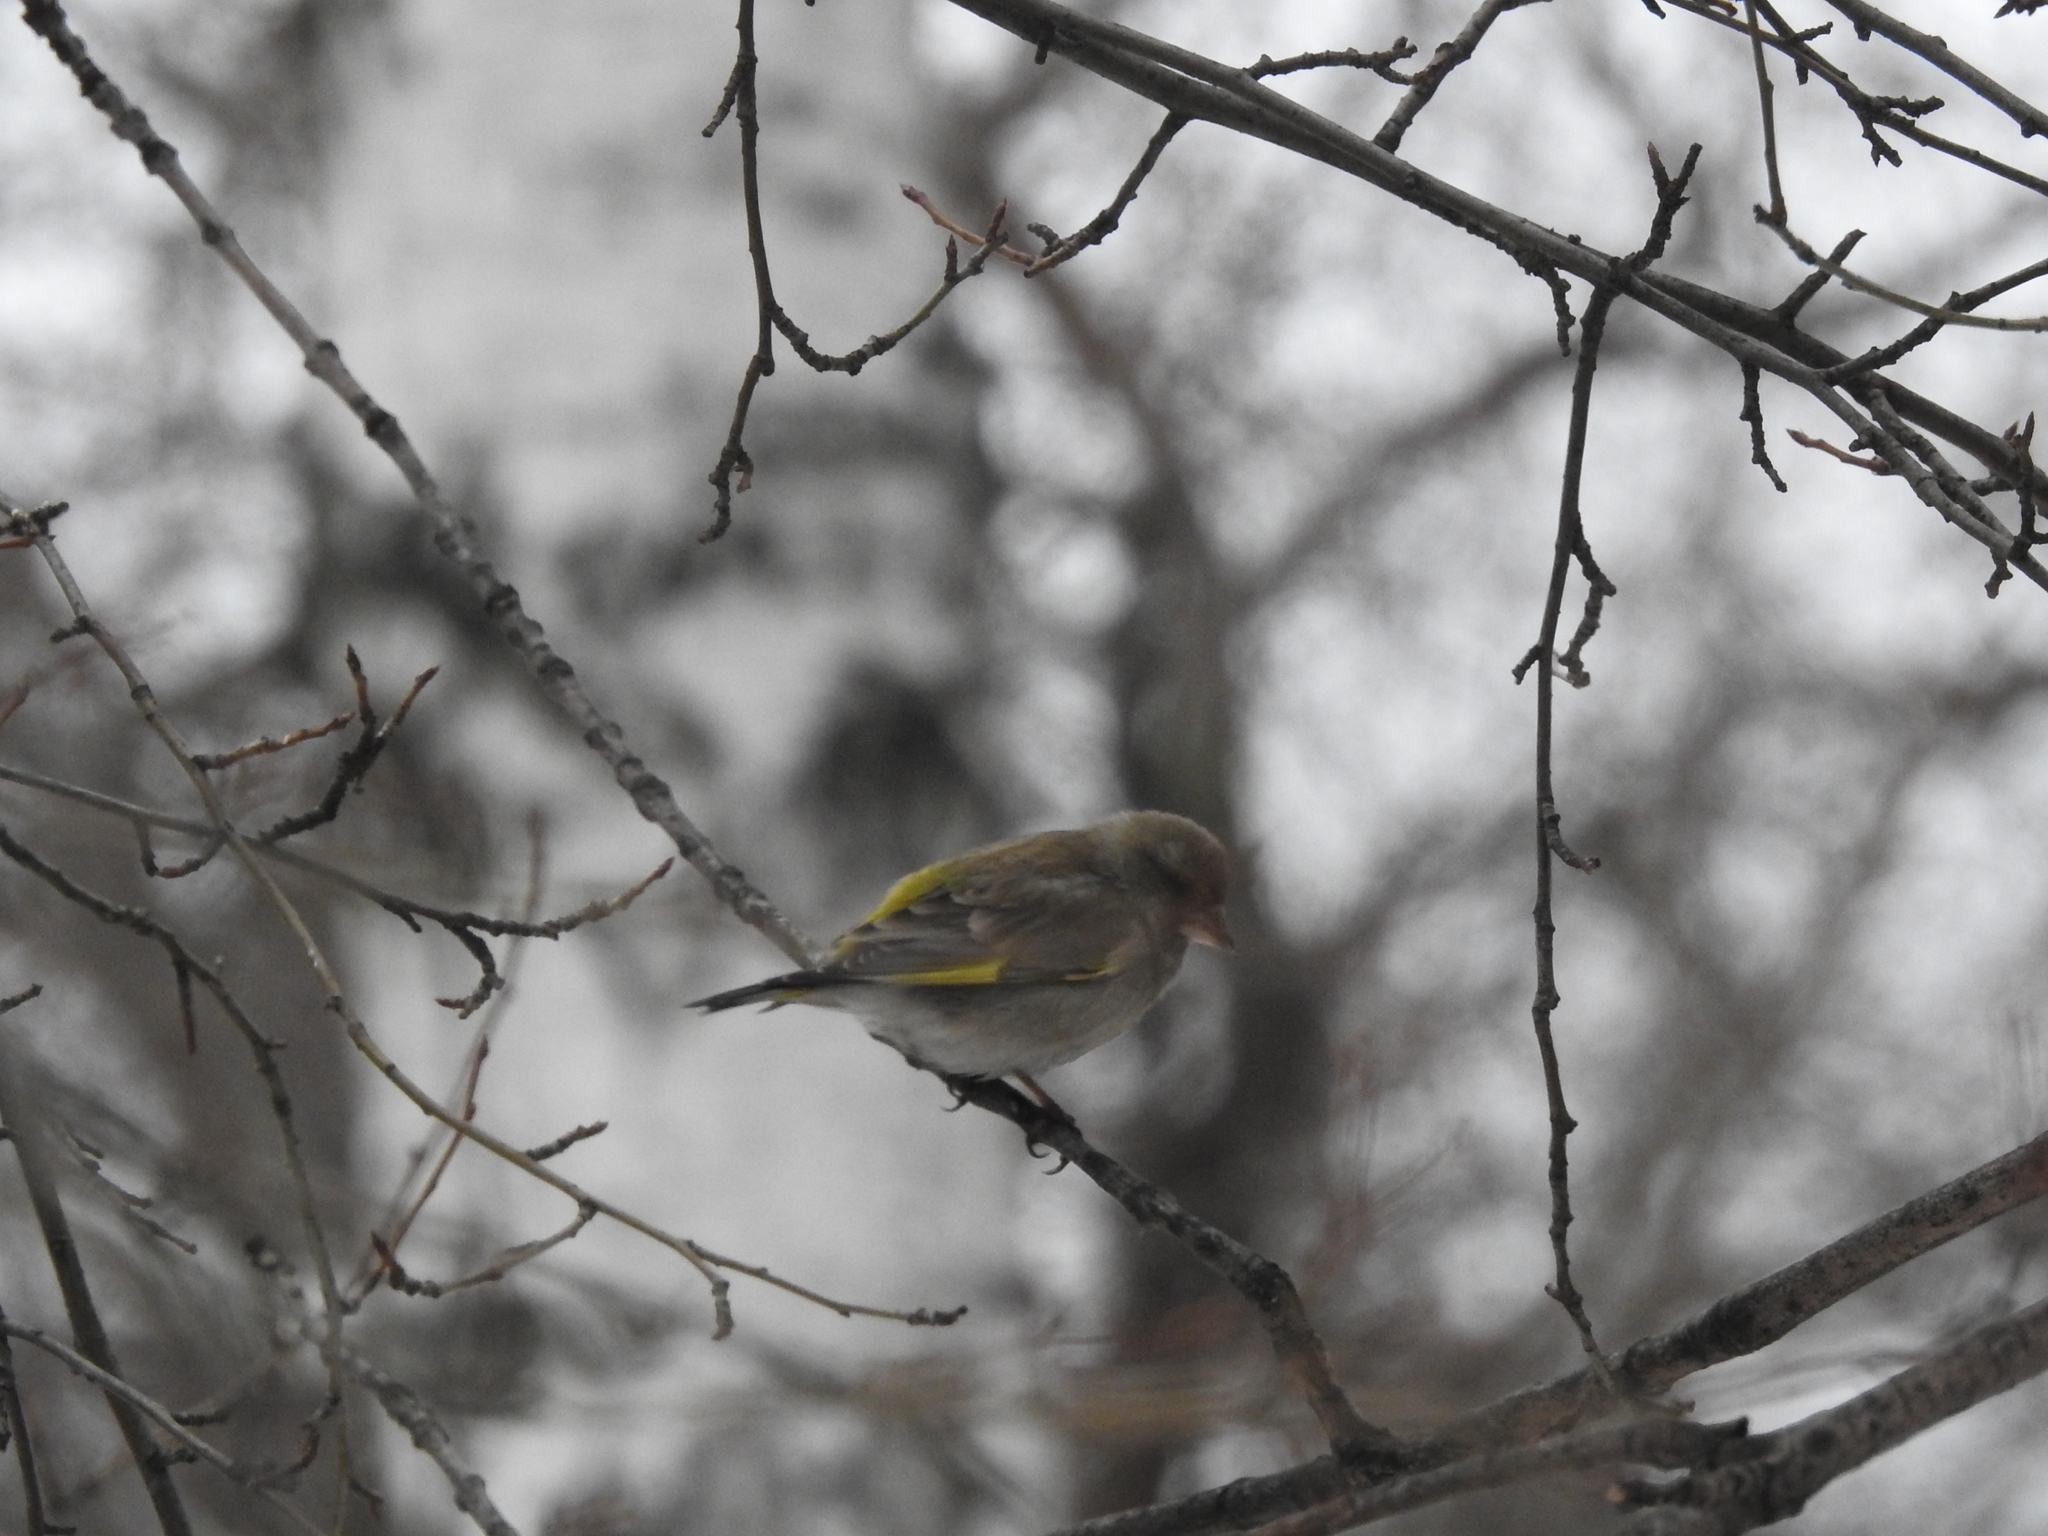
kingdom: Plantae
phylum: Tracheophyta
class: Liliopsida
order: Poales
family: Poaceae
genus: Chloris
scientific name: Chloris chloris
